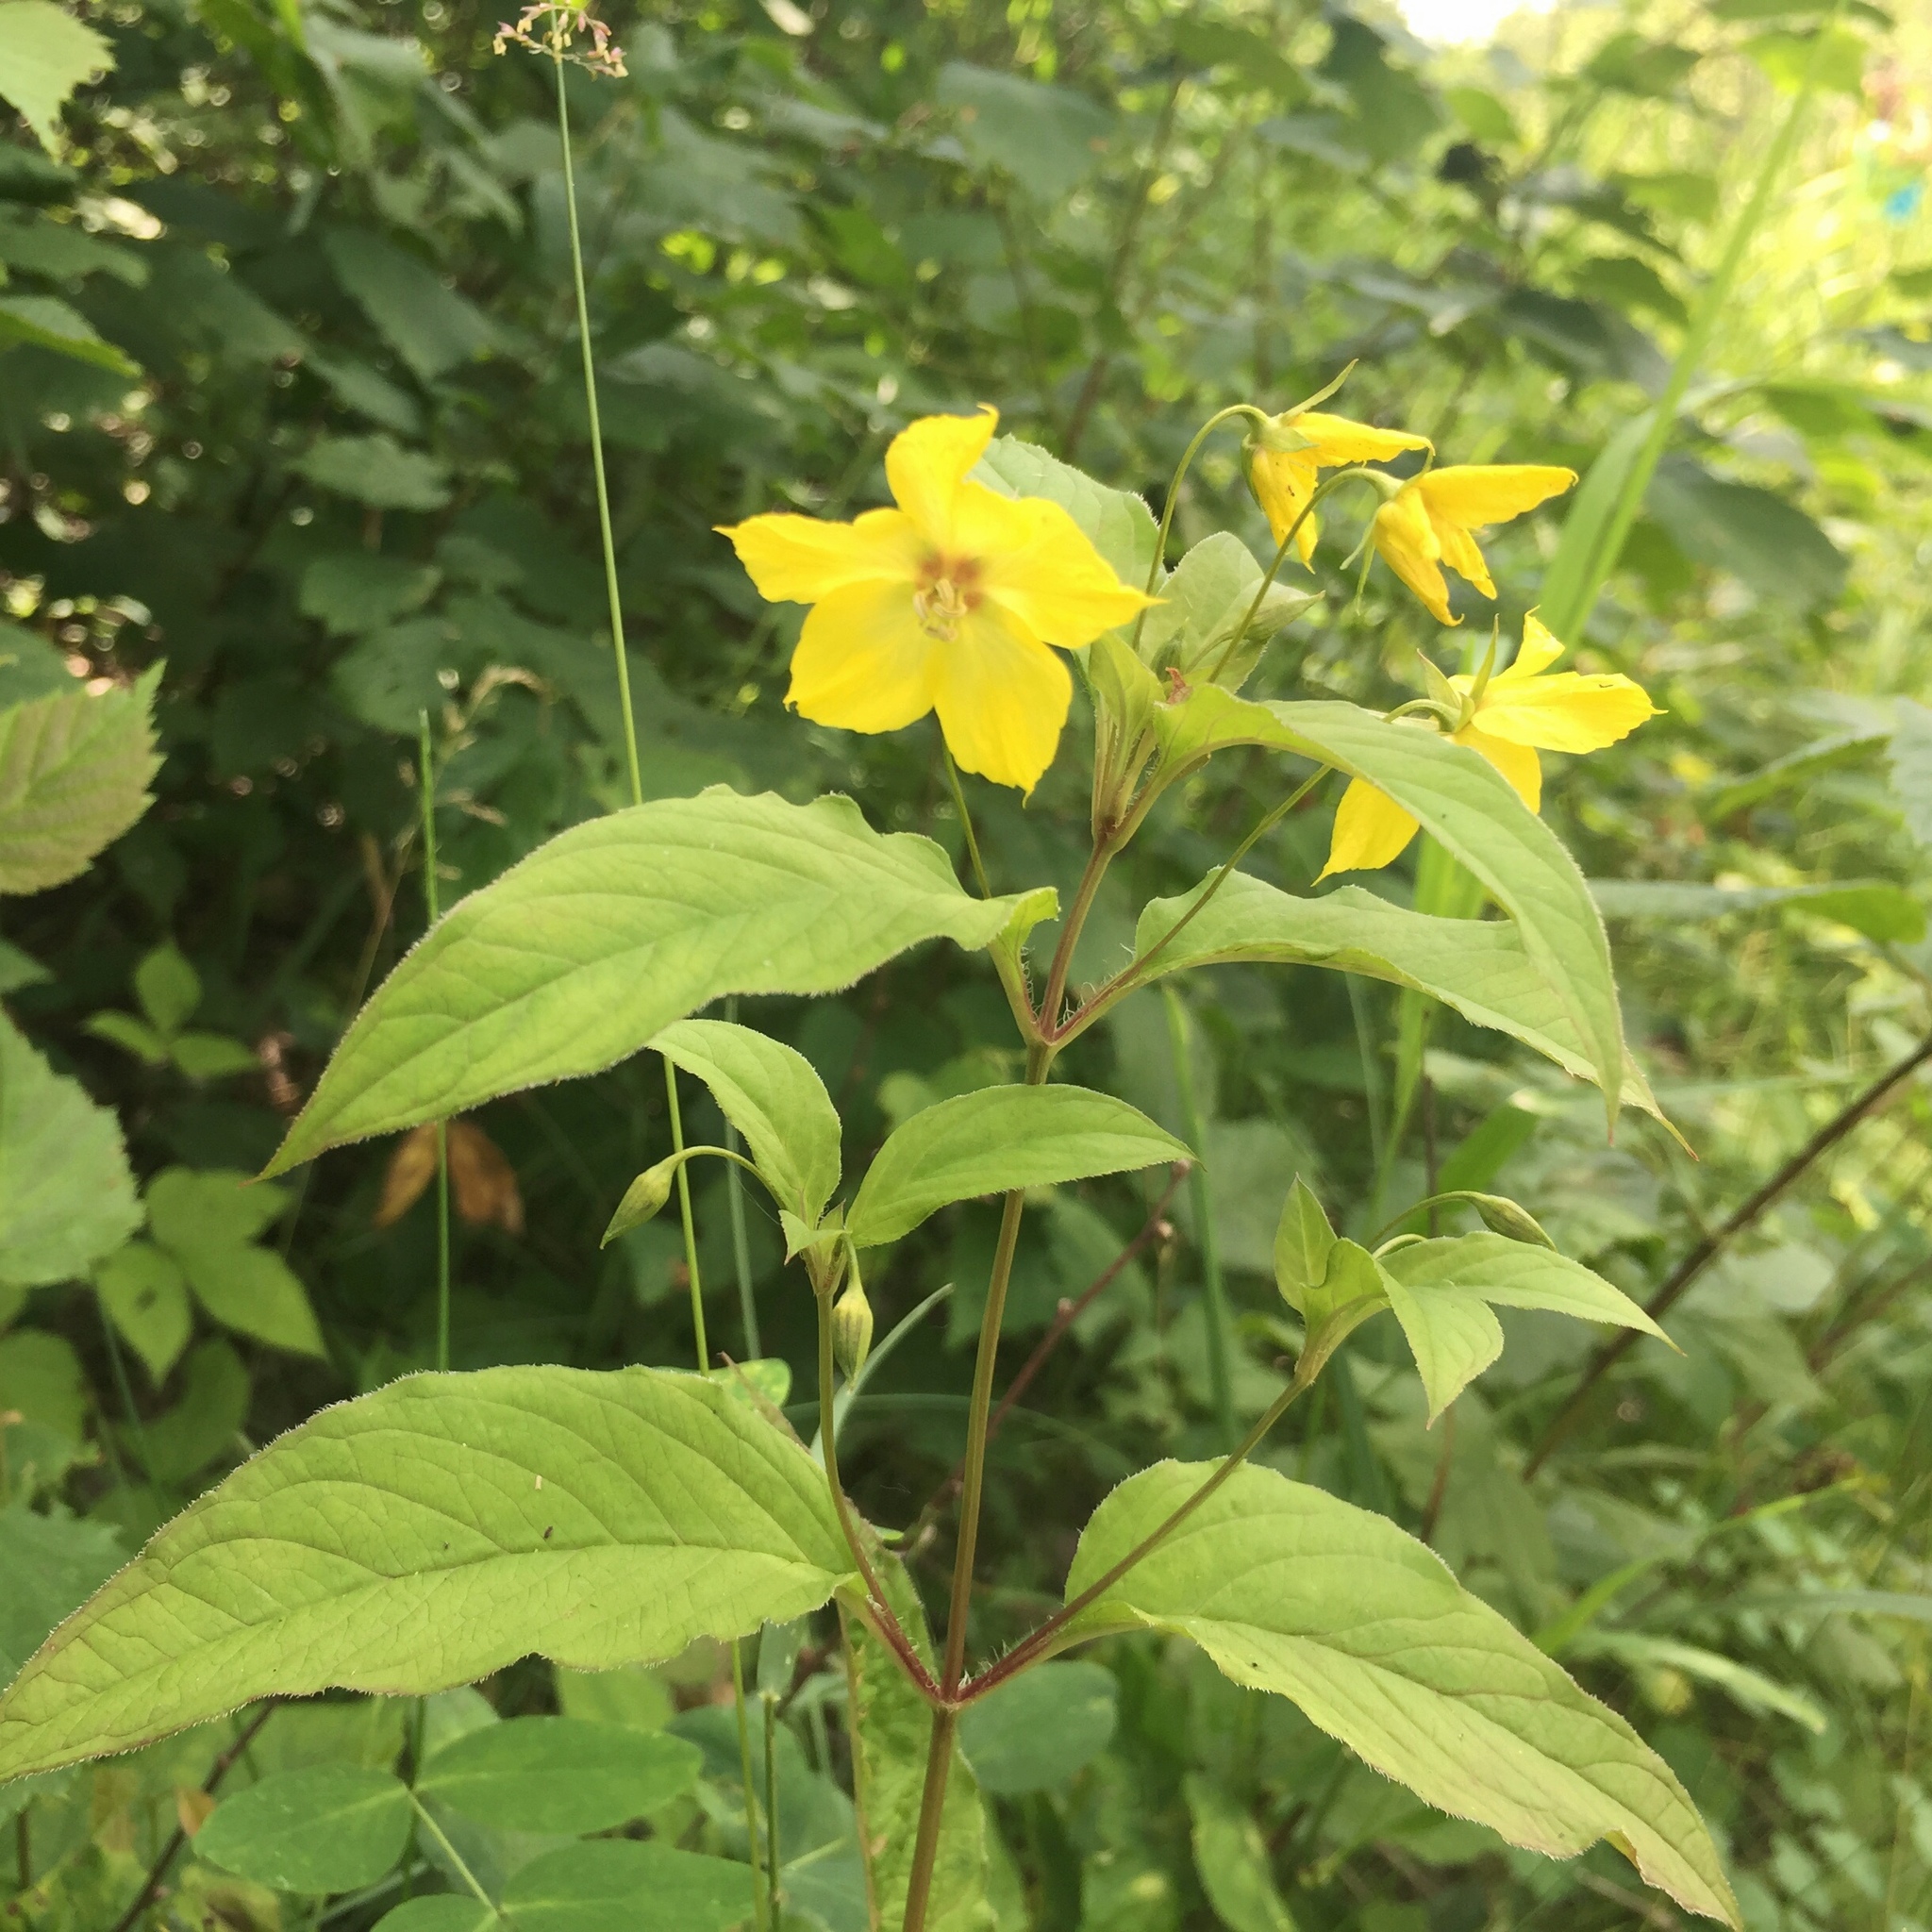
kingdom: Plantae
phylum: Tracheophyta
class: Magnoliopsida
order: Ericales
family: Primulaceae
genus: Lysimachia
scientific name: Lysimachia ciliata
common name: Fringed loosestrife
